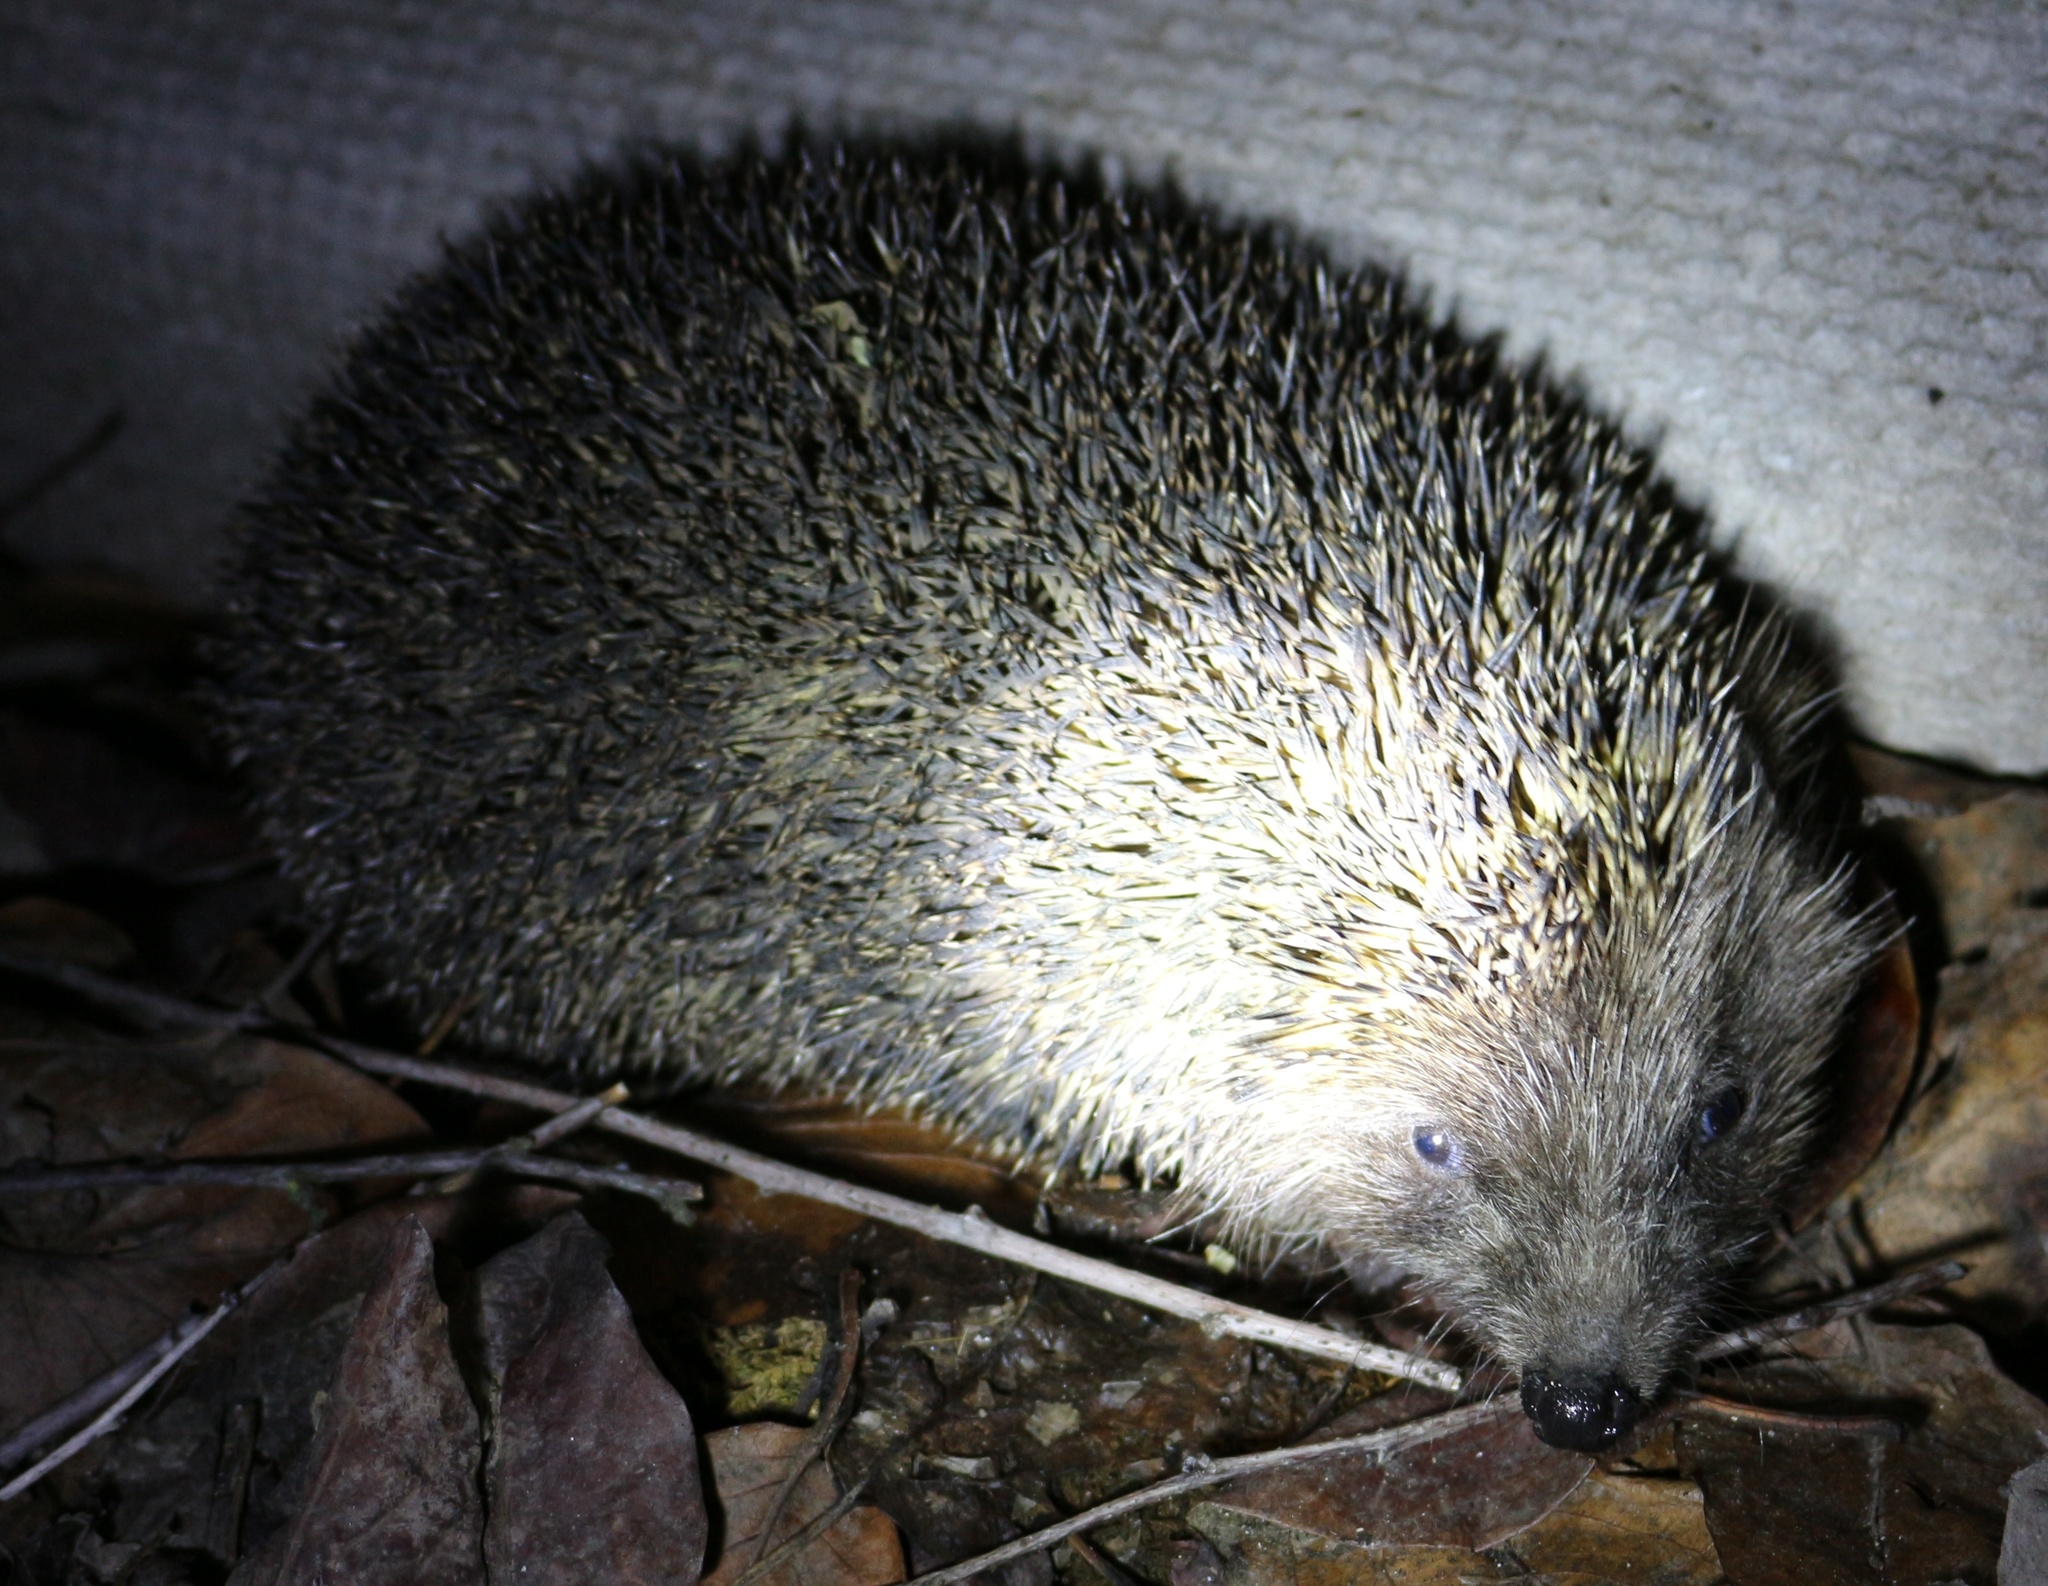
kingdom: Animalia
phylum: Chordata
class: Mammalia
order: Erinaceomorpha
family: Erinaceidae
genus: Erinaceus
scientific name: Erinaceus roumanicus
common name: Northern white-breasted hedgehog
